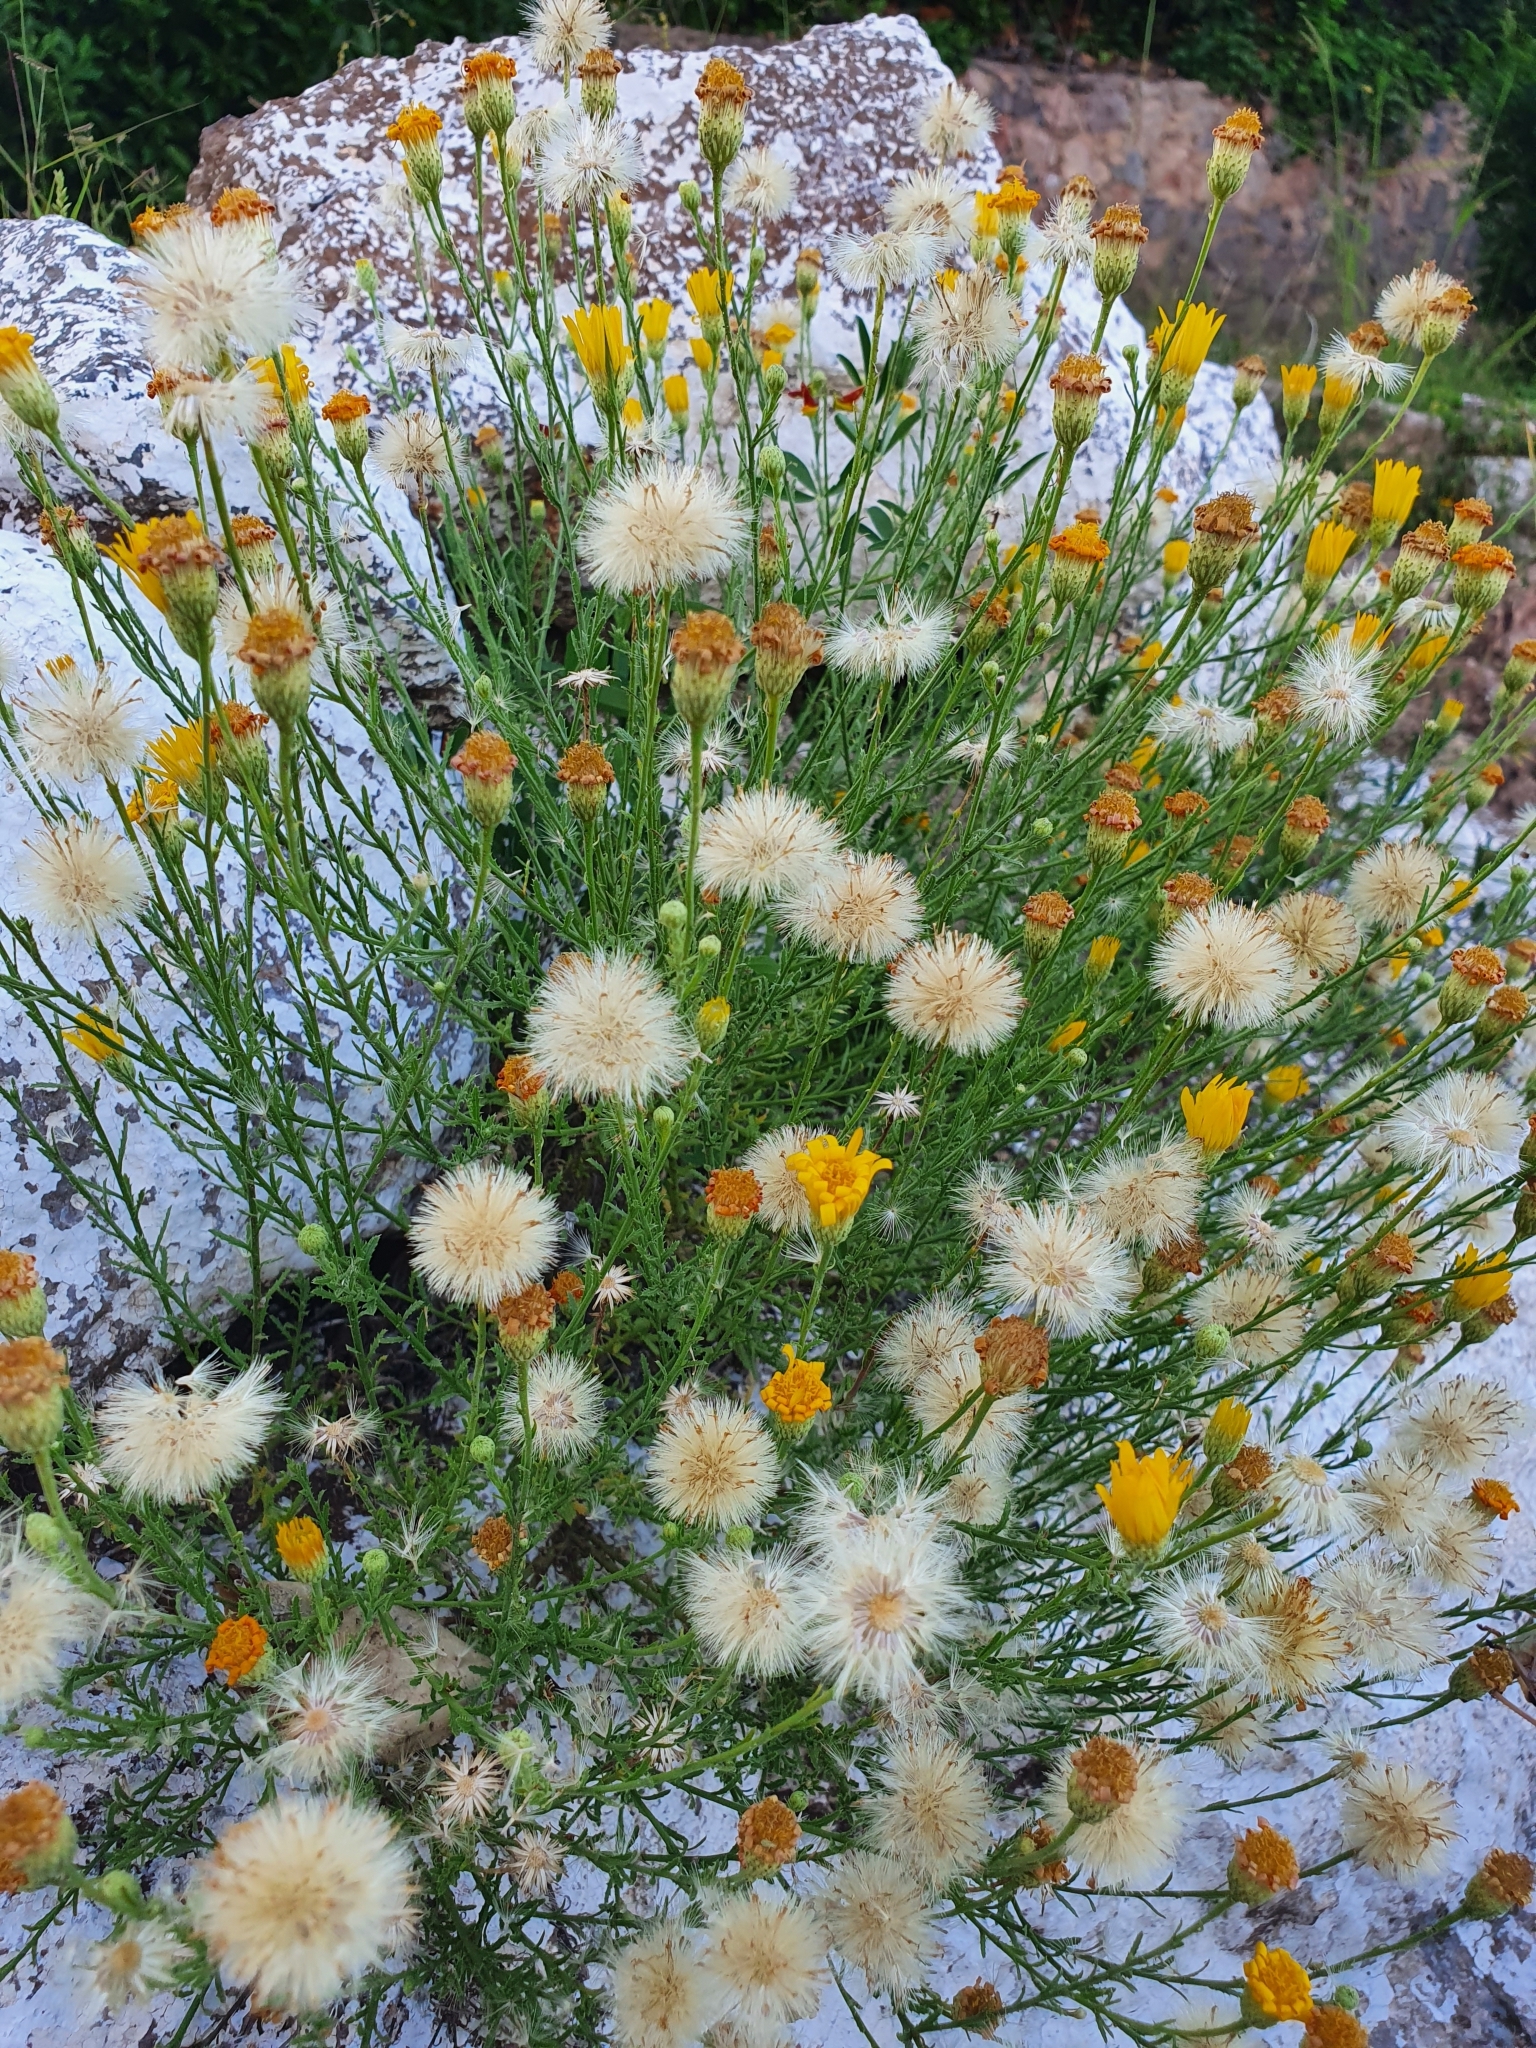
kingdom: Plantae
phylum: Tracheophyta
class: Magnoliopsida
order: Asterales
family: Asteraceae
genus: Xanthisma
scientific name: Xanthisma spinulosum
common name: Spiny goldenweed
